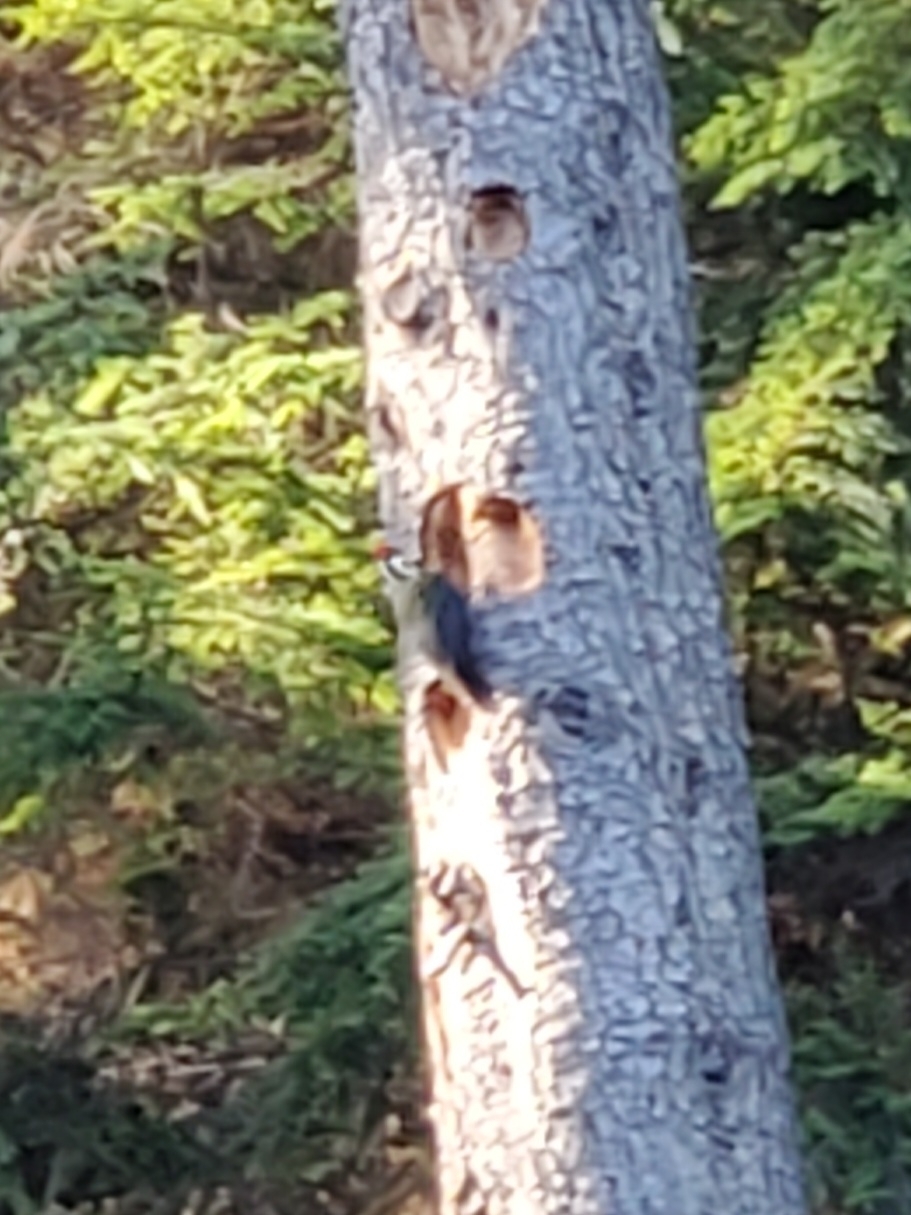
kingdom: Animalia
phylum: Chordata
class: Aves
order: Piciformes
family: Picidae
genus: Dryocopus
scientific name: Dryocopus pileatus
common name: Pileated woodpecker
